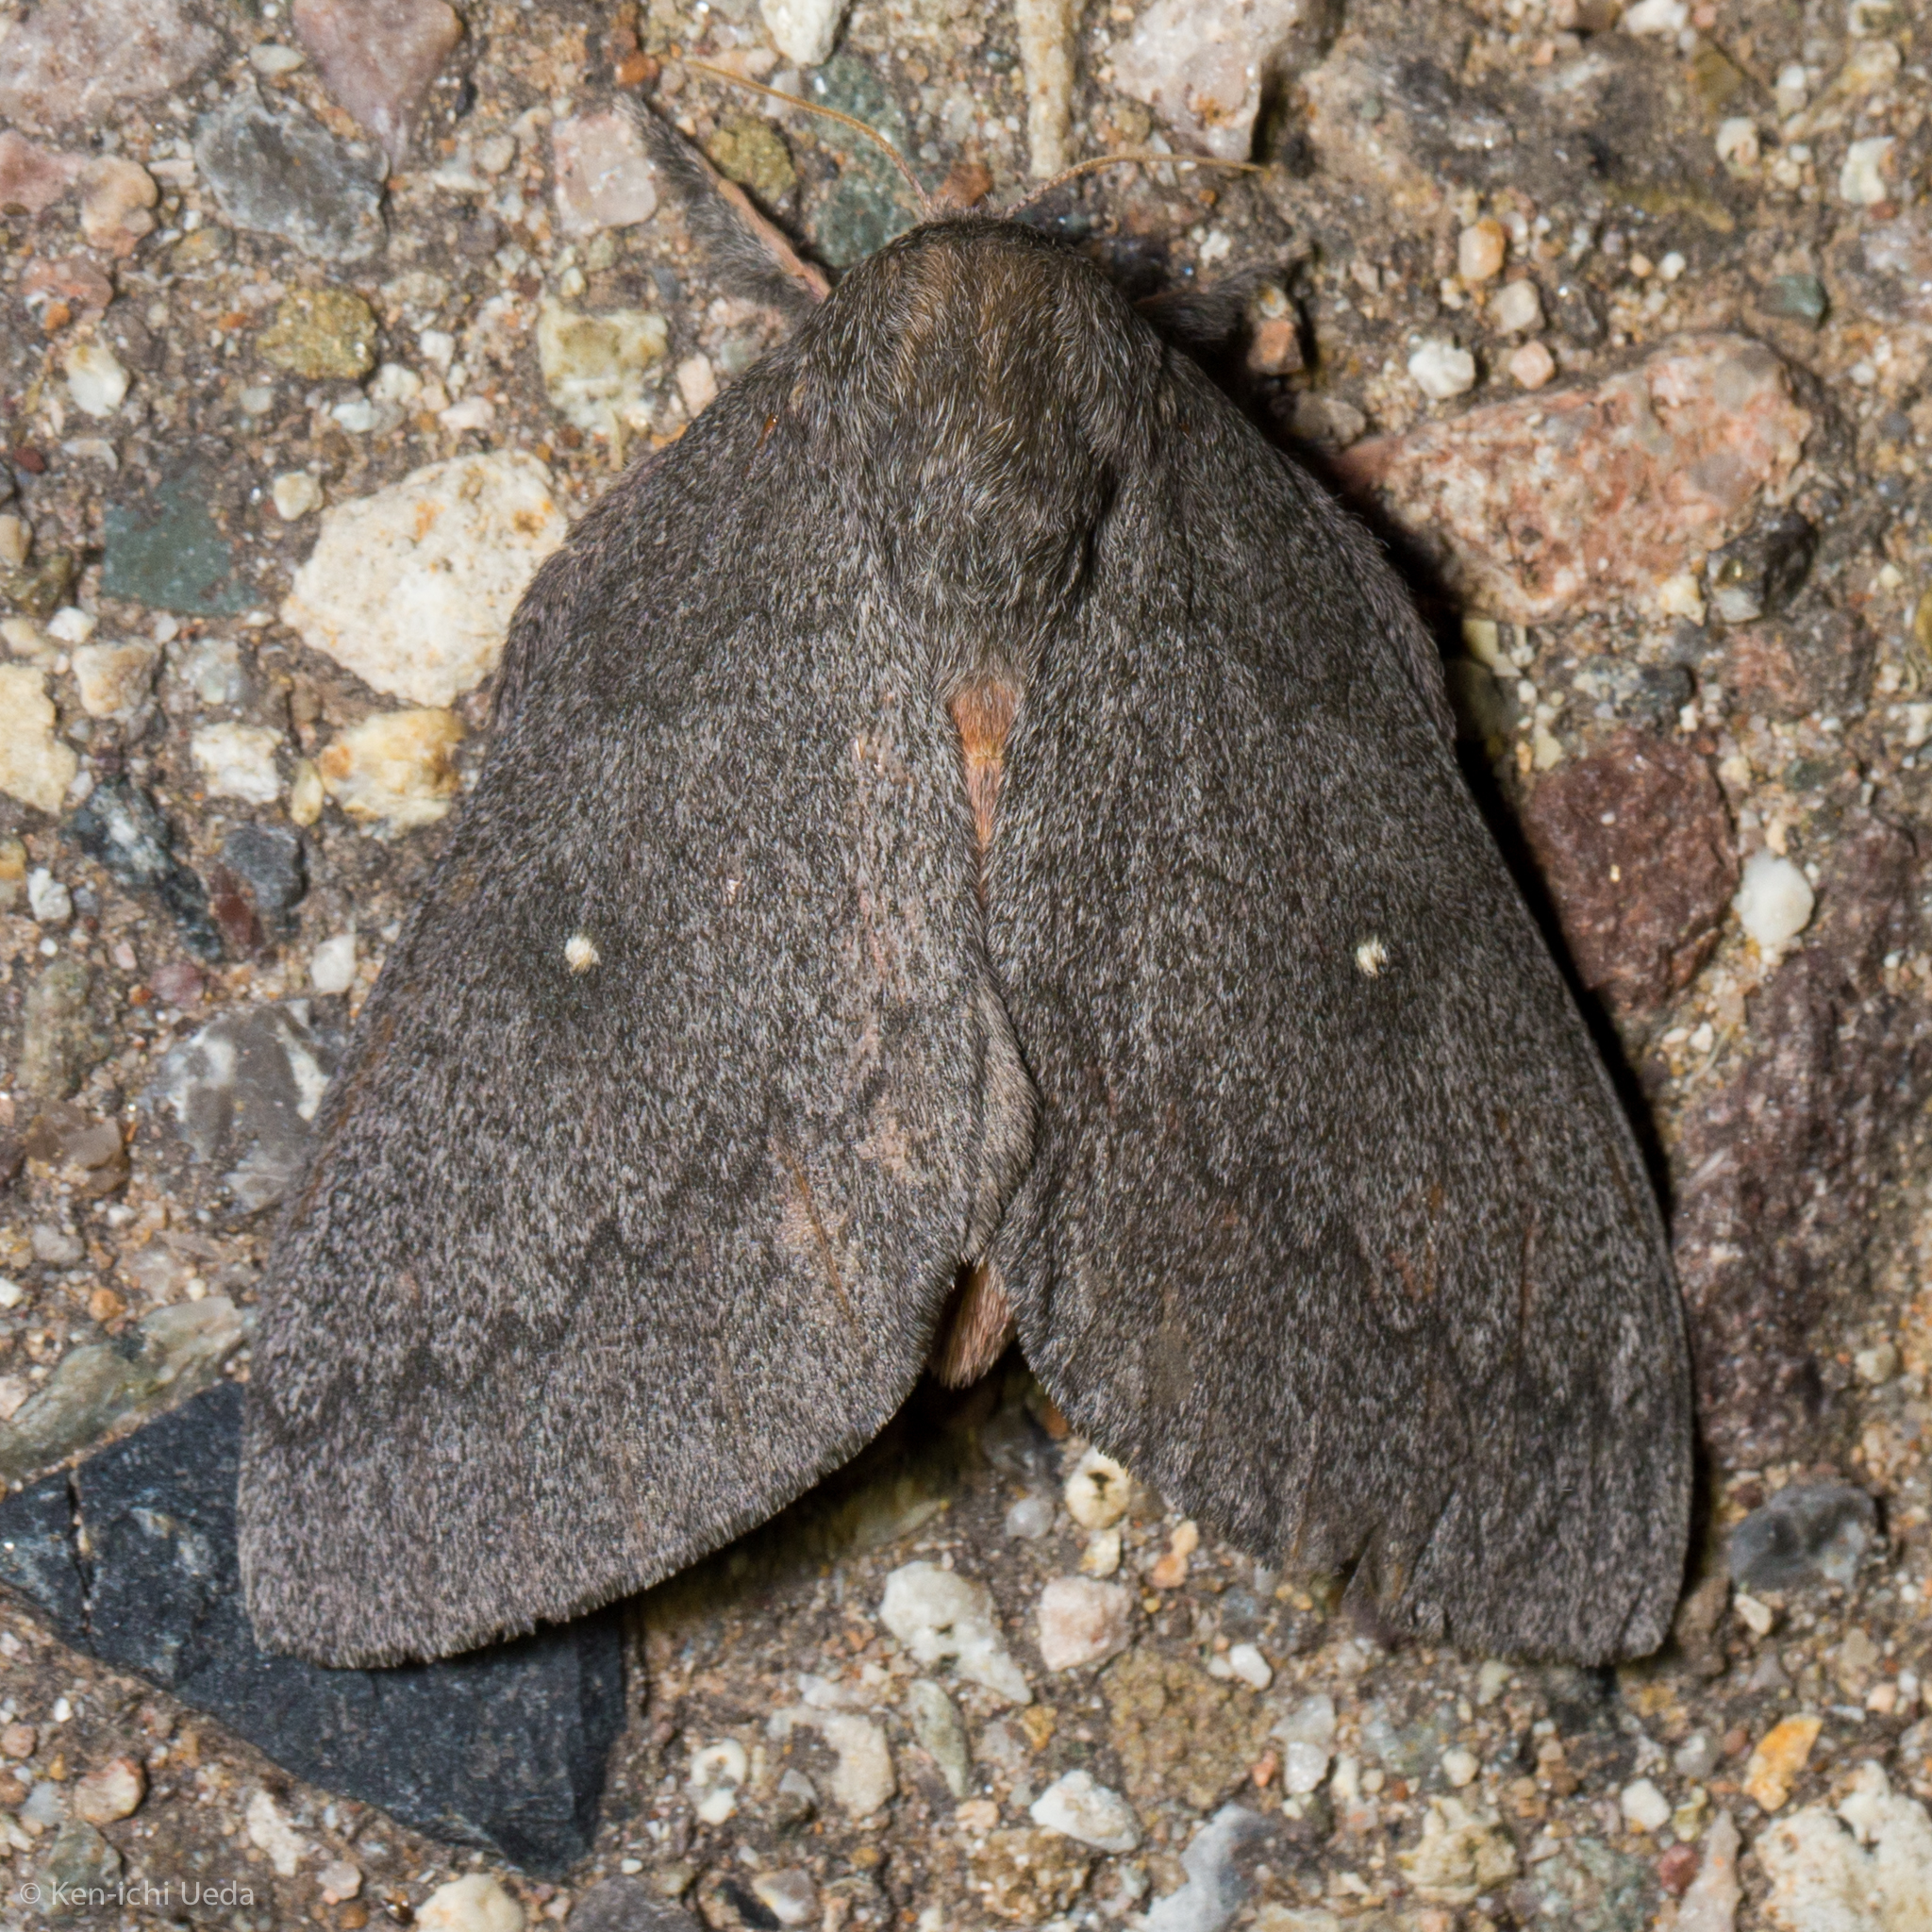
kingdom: Animalia
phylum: Arthropoda
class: Insecta
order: Lepidoptera
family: Saturniidae
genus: Syssphinx
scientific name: Syssphinx hubbardi
